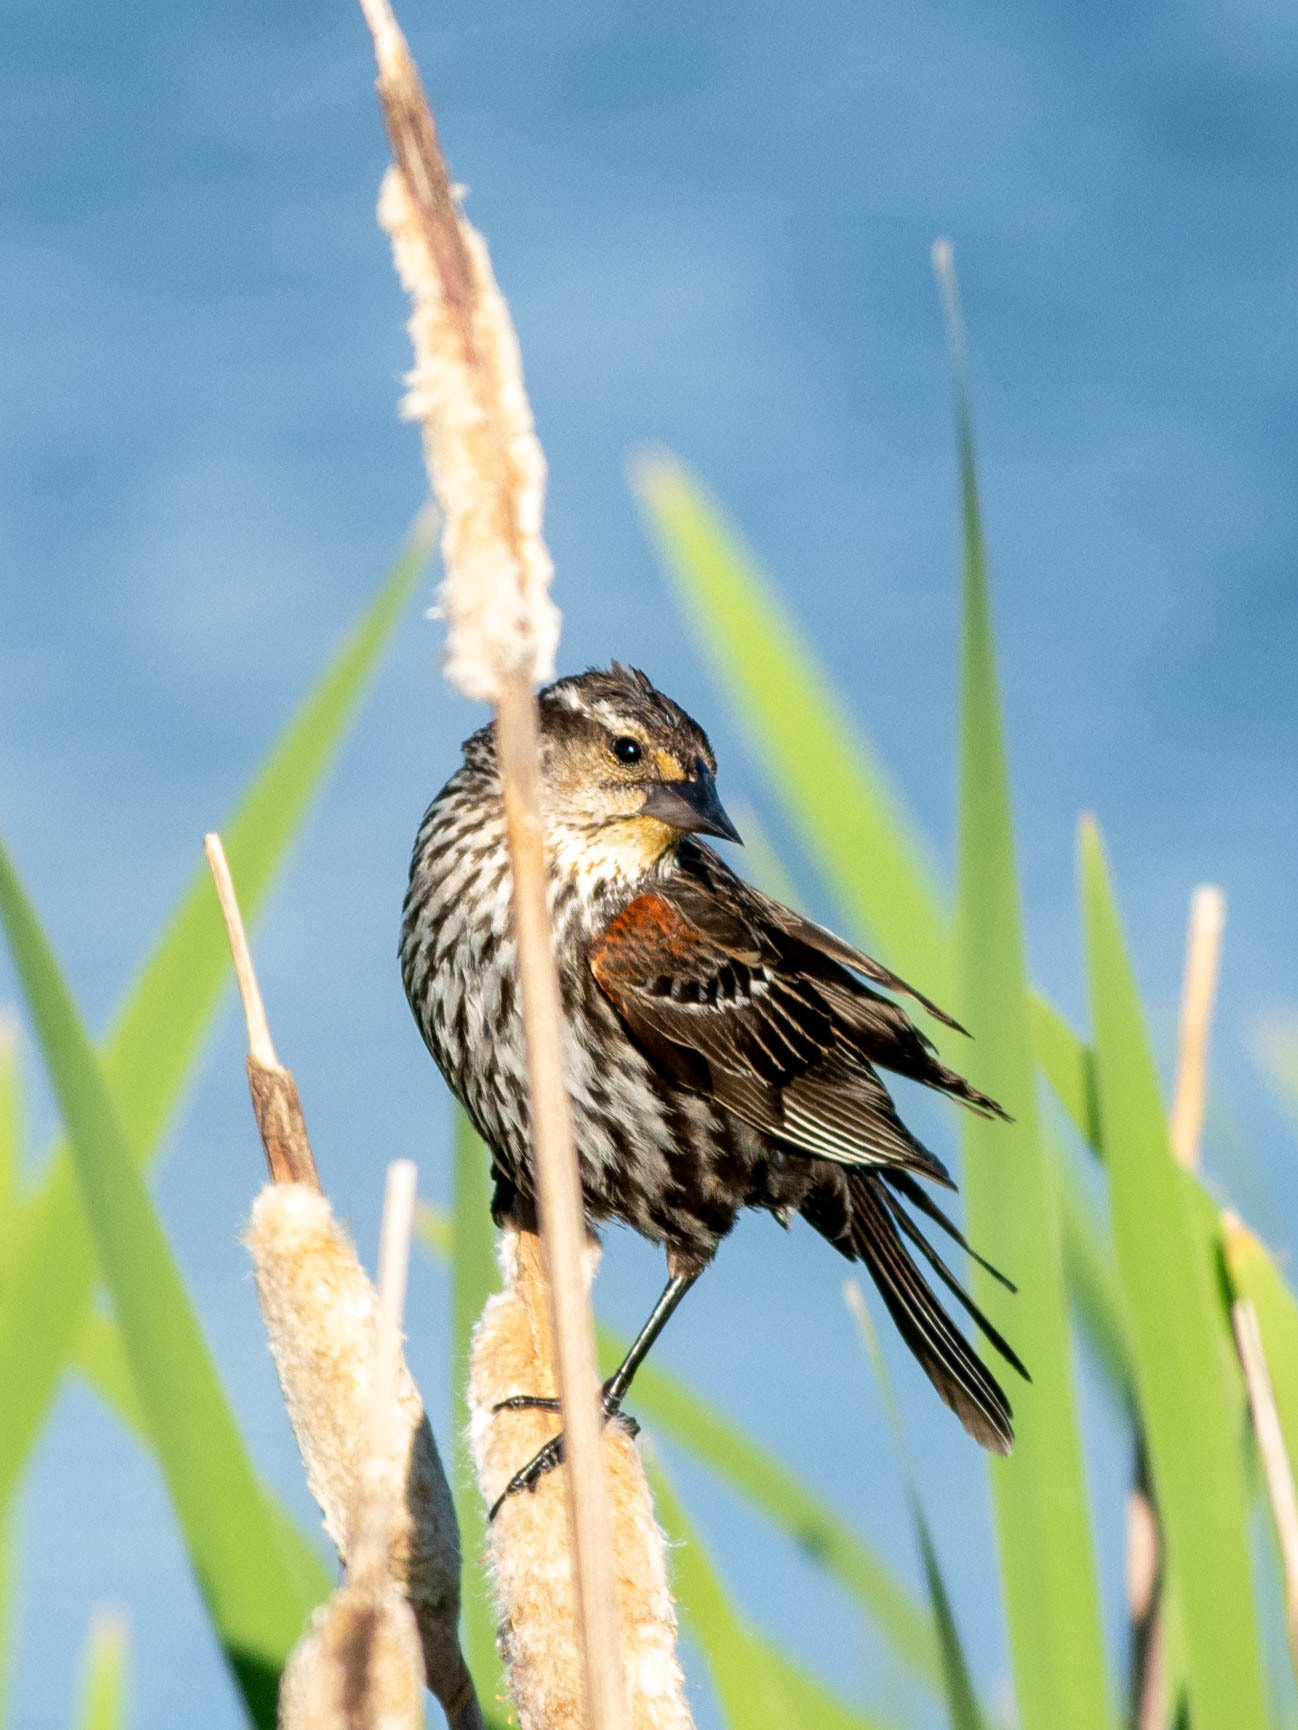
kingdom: Animalia
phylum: Chordata
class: Aves
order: Passeriformes
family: Icteridae
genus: Agelaius
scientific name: Agelaius phoeniceus
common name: Red-winged blackbird
